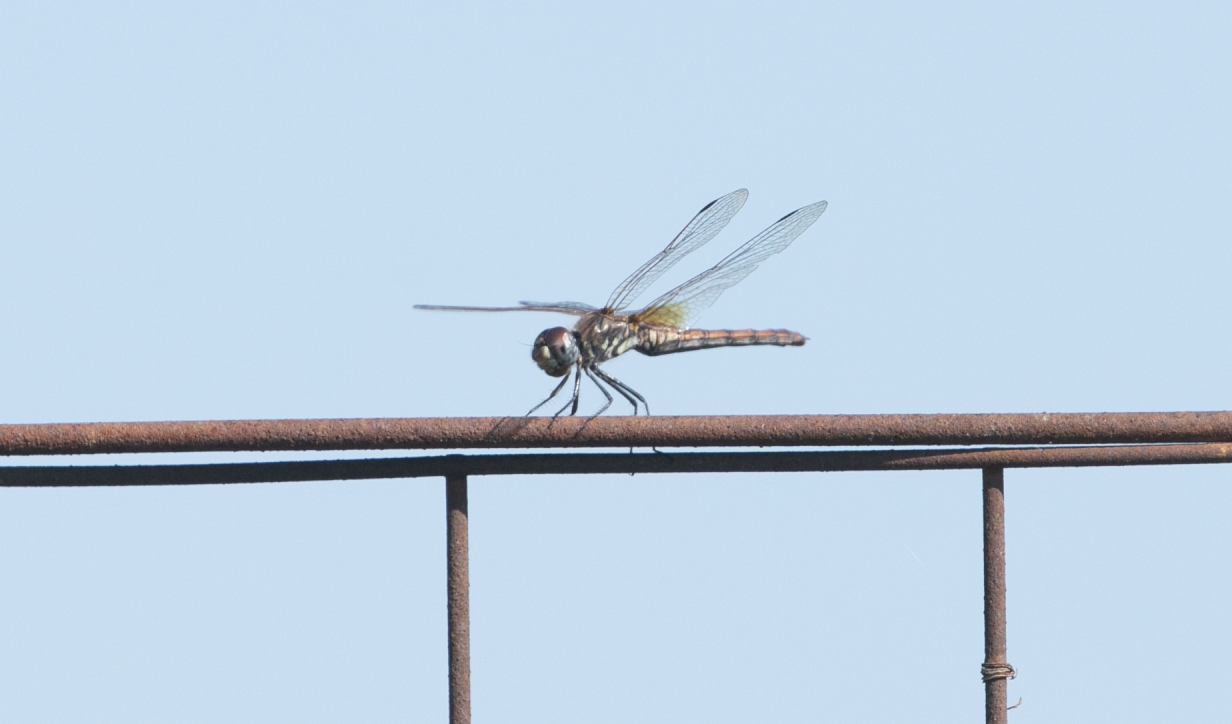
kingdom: Animalia
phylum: Arthropoda
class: Insecta
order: Odonata
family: Libellulidae
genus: Trithemis
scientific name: Trithemis annulata
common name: Violet dropwing
